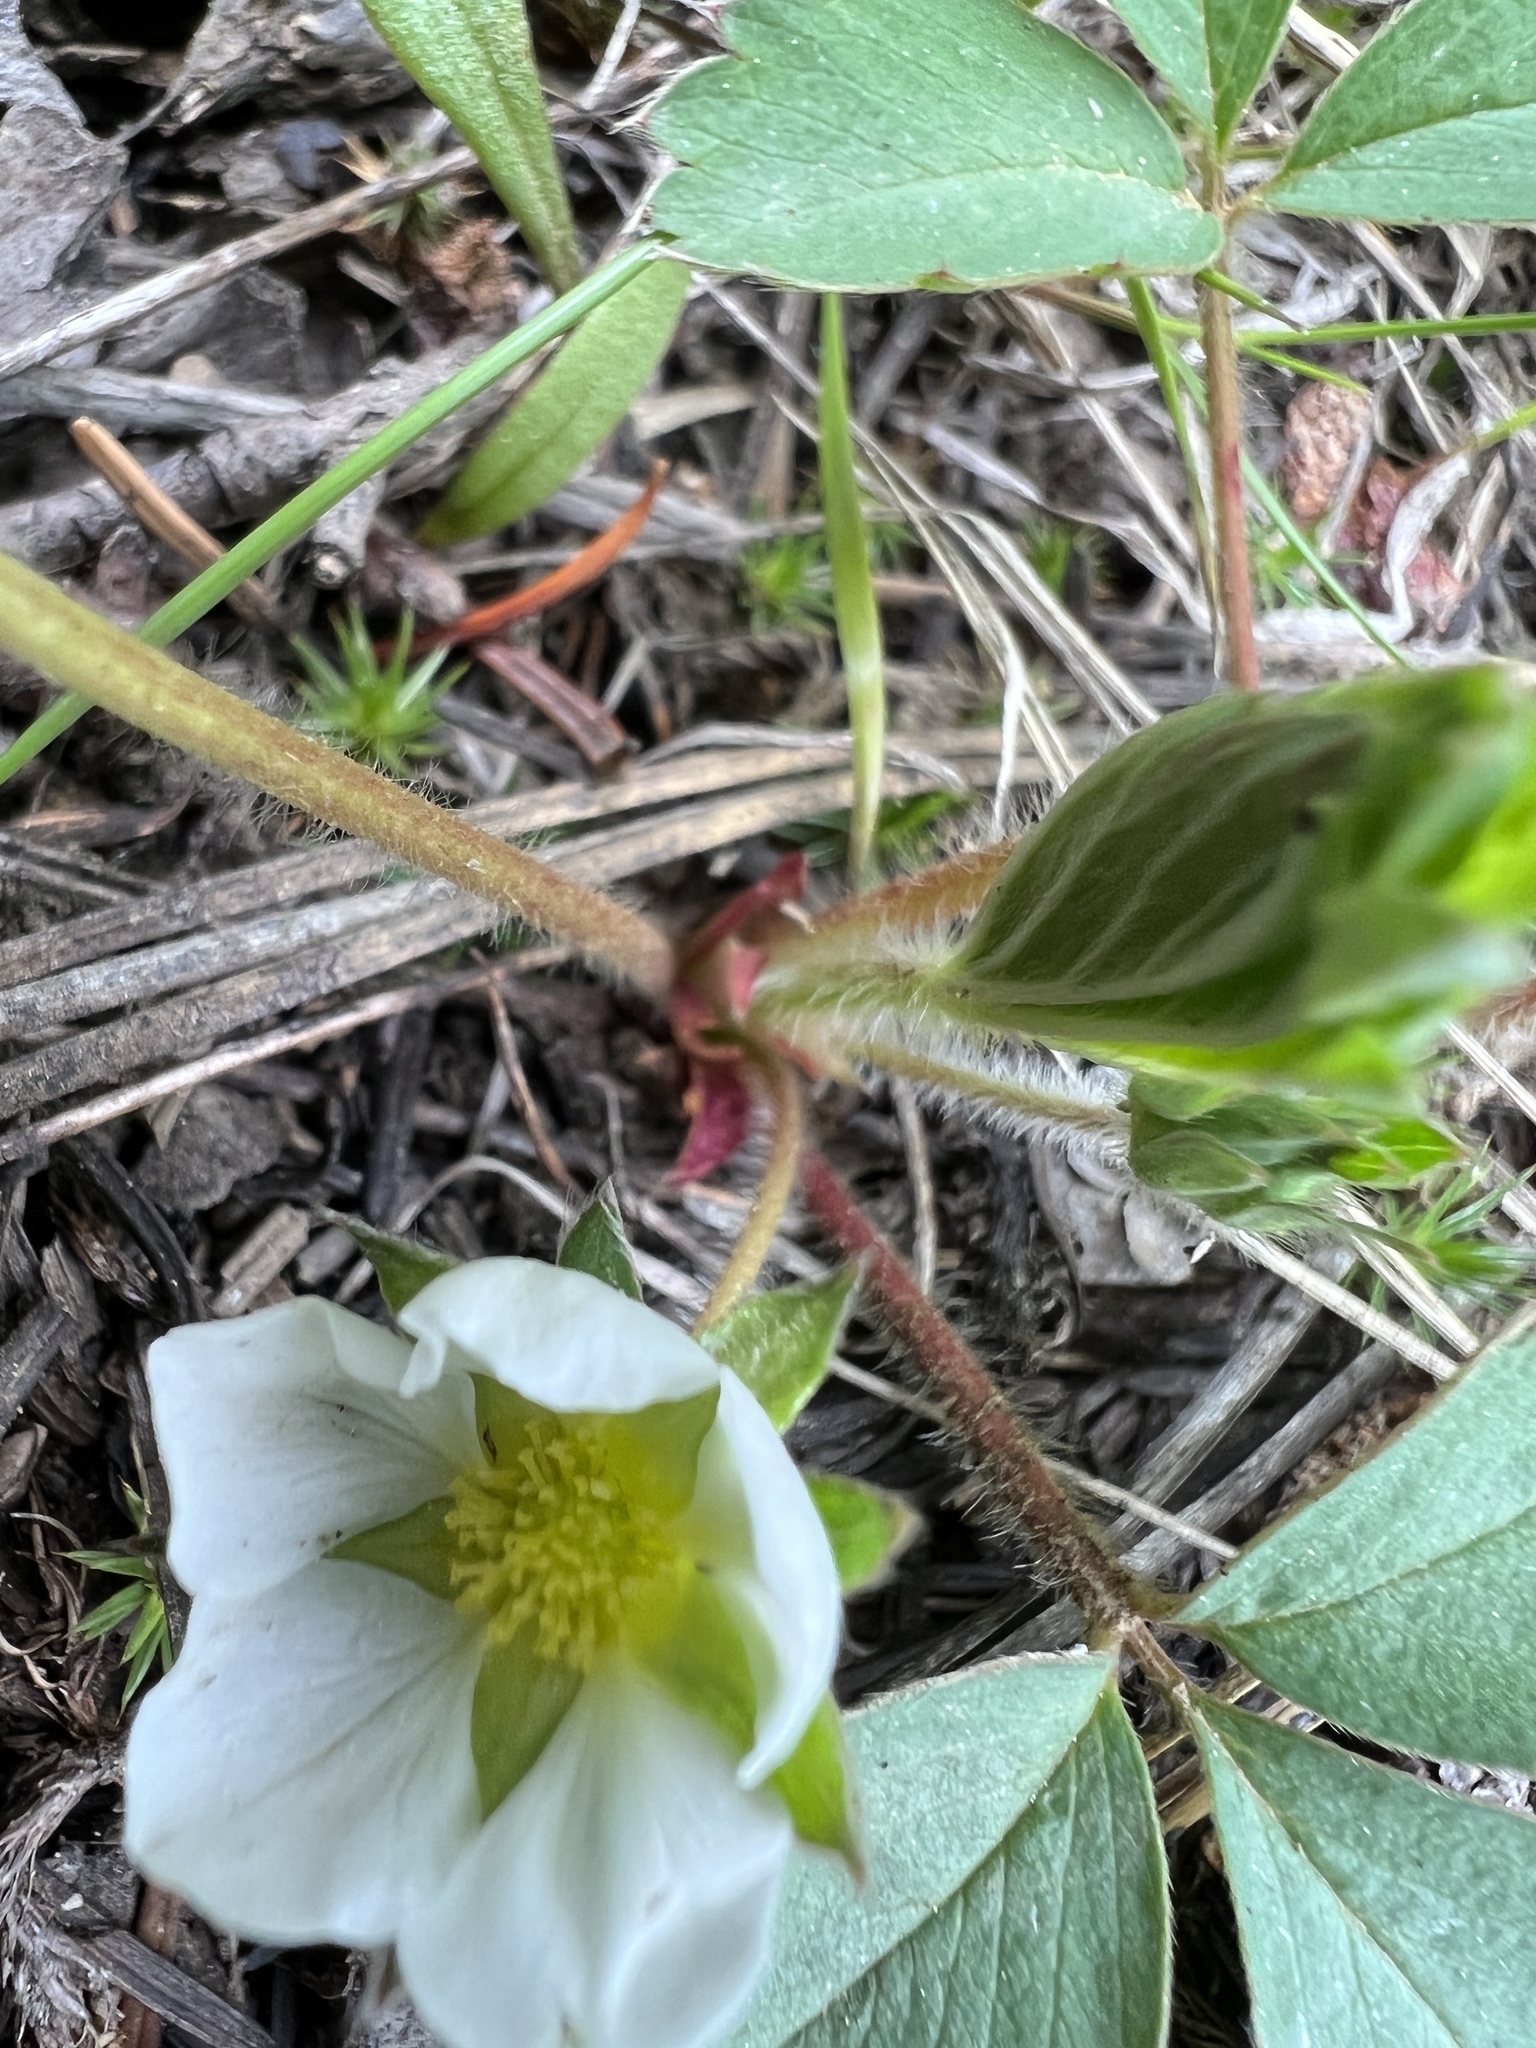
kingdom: Plantae
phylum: Tracheophyta
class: Magnoliopsida
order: Rosales
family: Rosaceae
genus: Fragaria
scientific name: Fragaria virginiana
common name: Thickleaved wild strawberry
